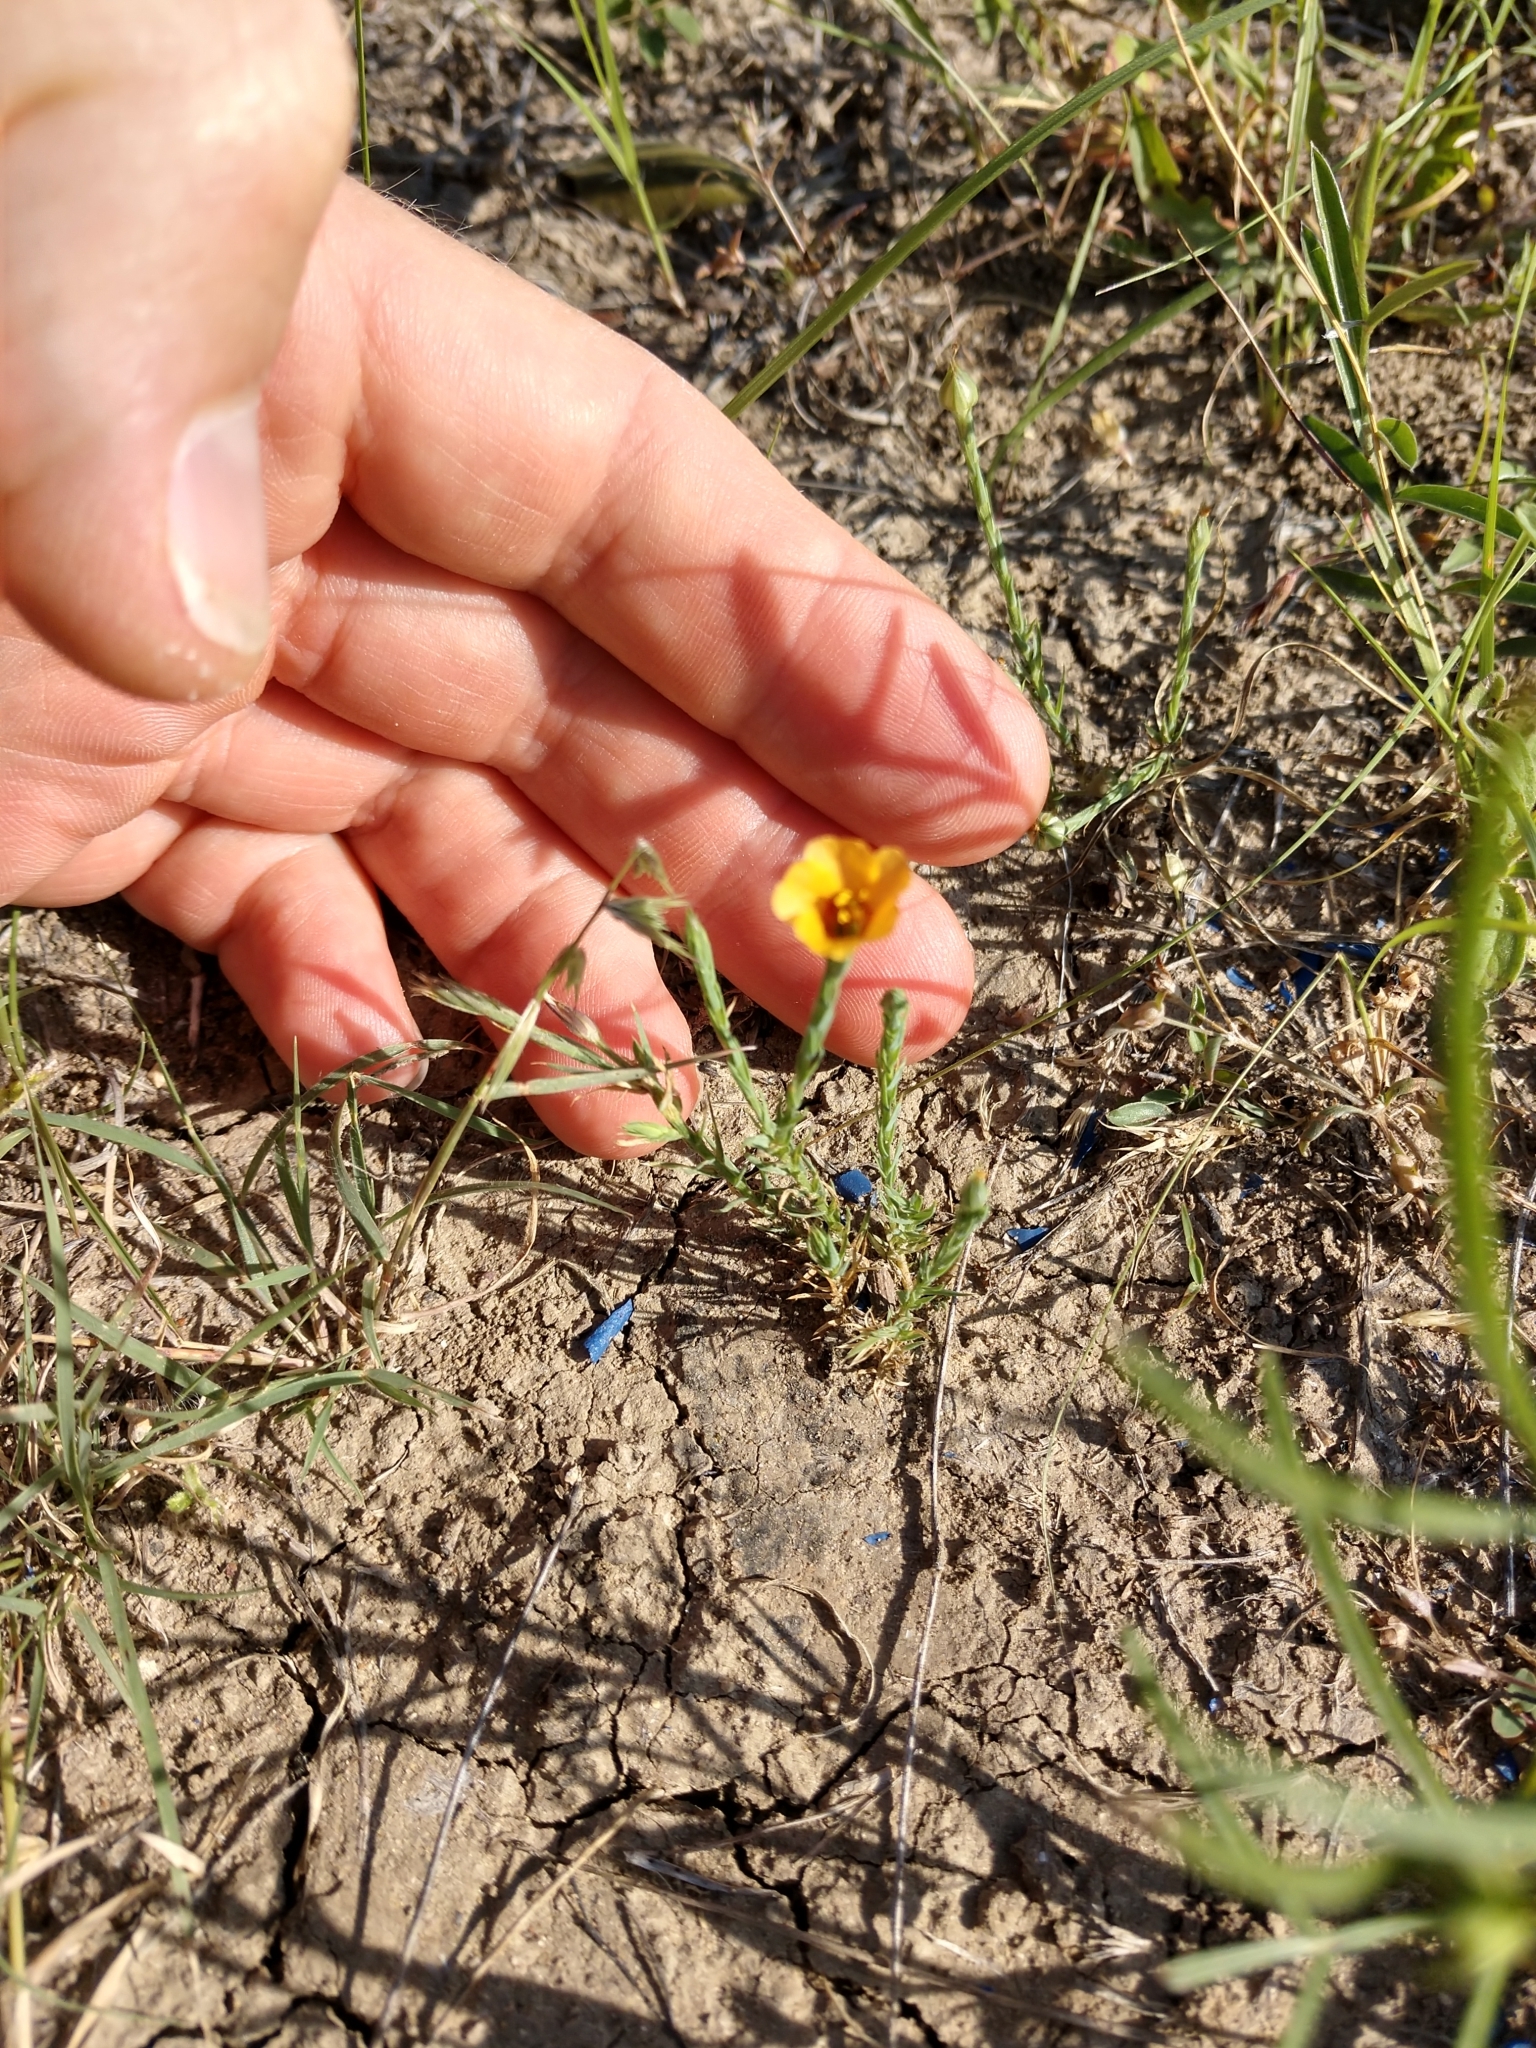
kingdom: Plantae
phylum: Tracheophyta
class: Magnoliopsida
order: Malpighiales
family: Linaceae
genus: Linum
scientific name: Linum rigidum
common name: Stiff-stem flax
